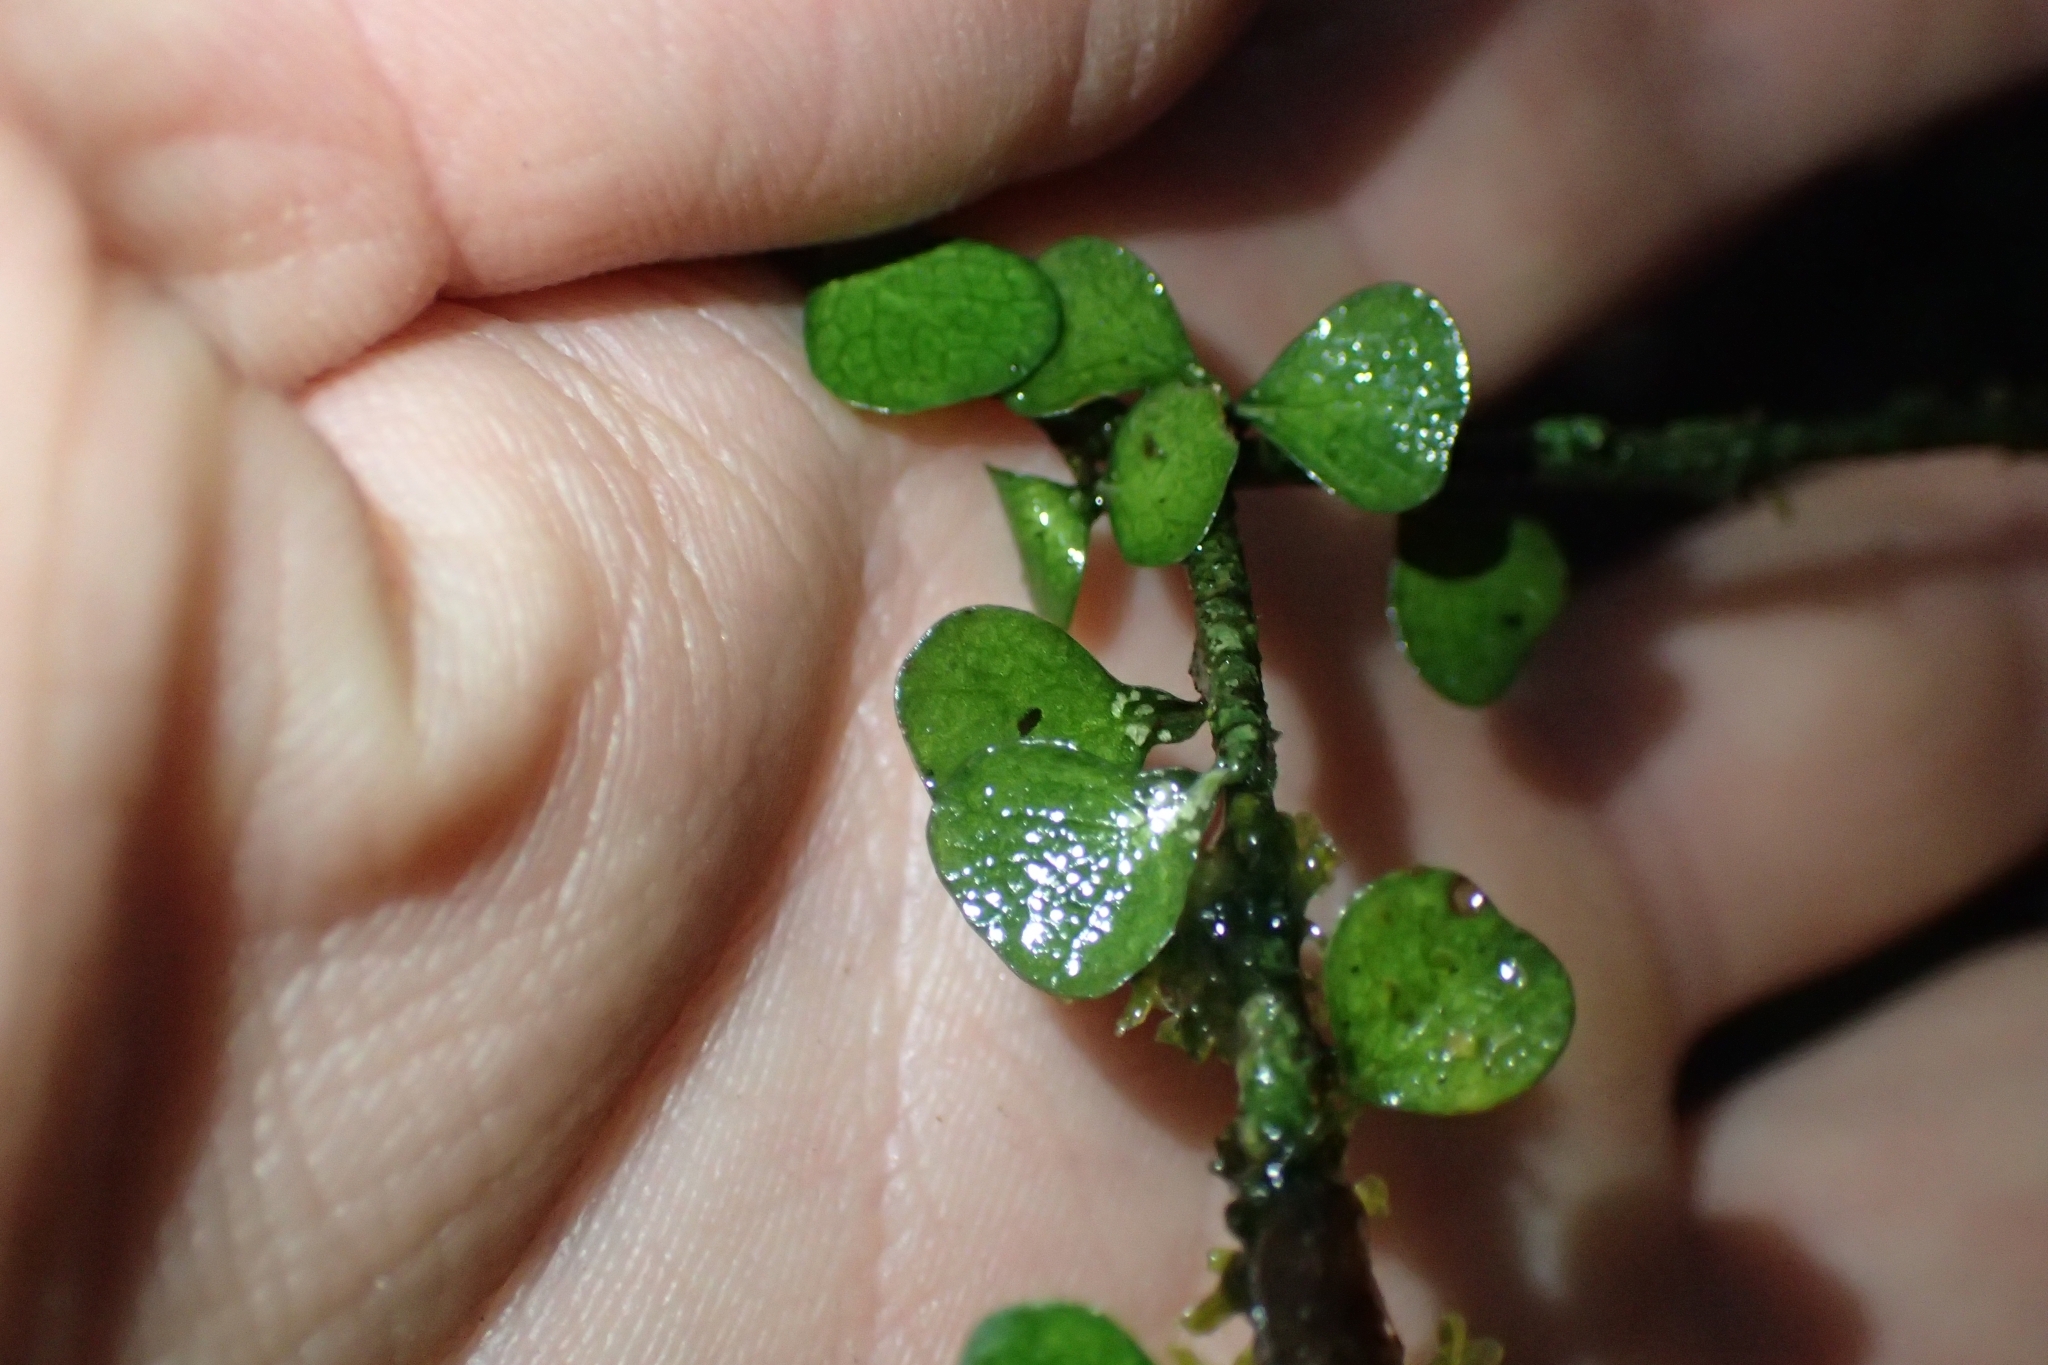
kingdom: Plantae
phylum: Tracheophyta
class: Magnoliopsida
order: Apiales
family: Pittosporaceae
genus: Pittosporum
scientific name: Pittosporum obcordatum
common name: Heart-leaved kohuhu
